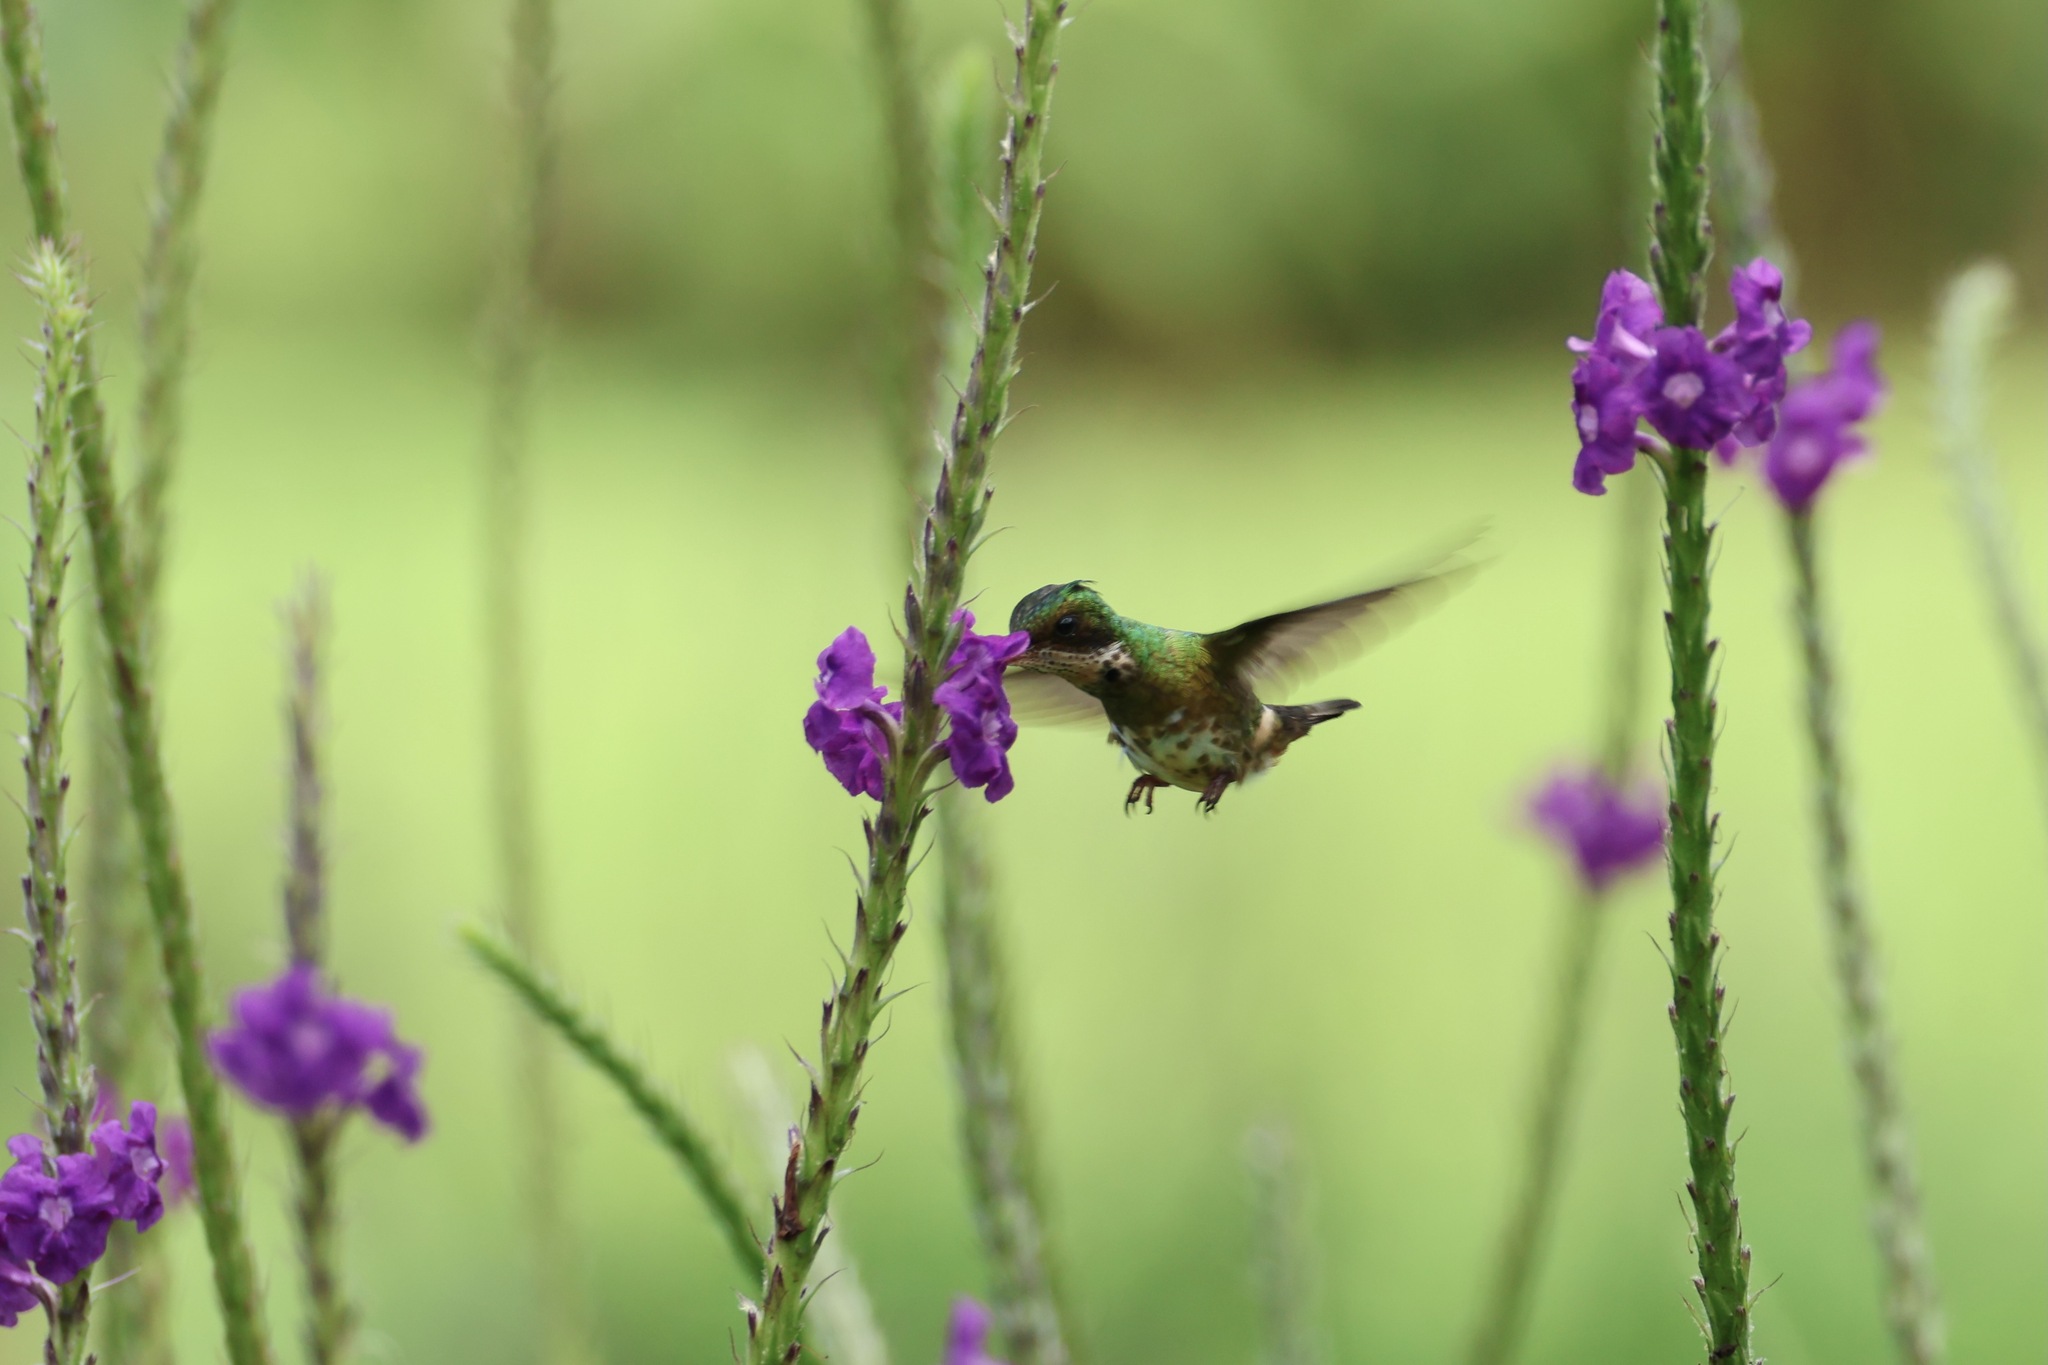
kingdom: Animalia
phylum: Chordata
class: Aves
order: Apodiformes
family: Trochilidae
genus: Lophornis
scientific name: Lophornis helenae
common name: Black-crested coquette
